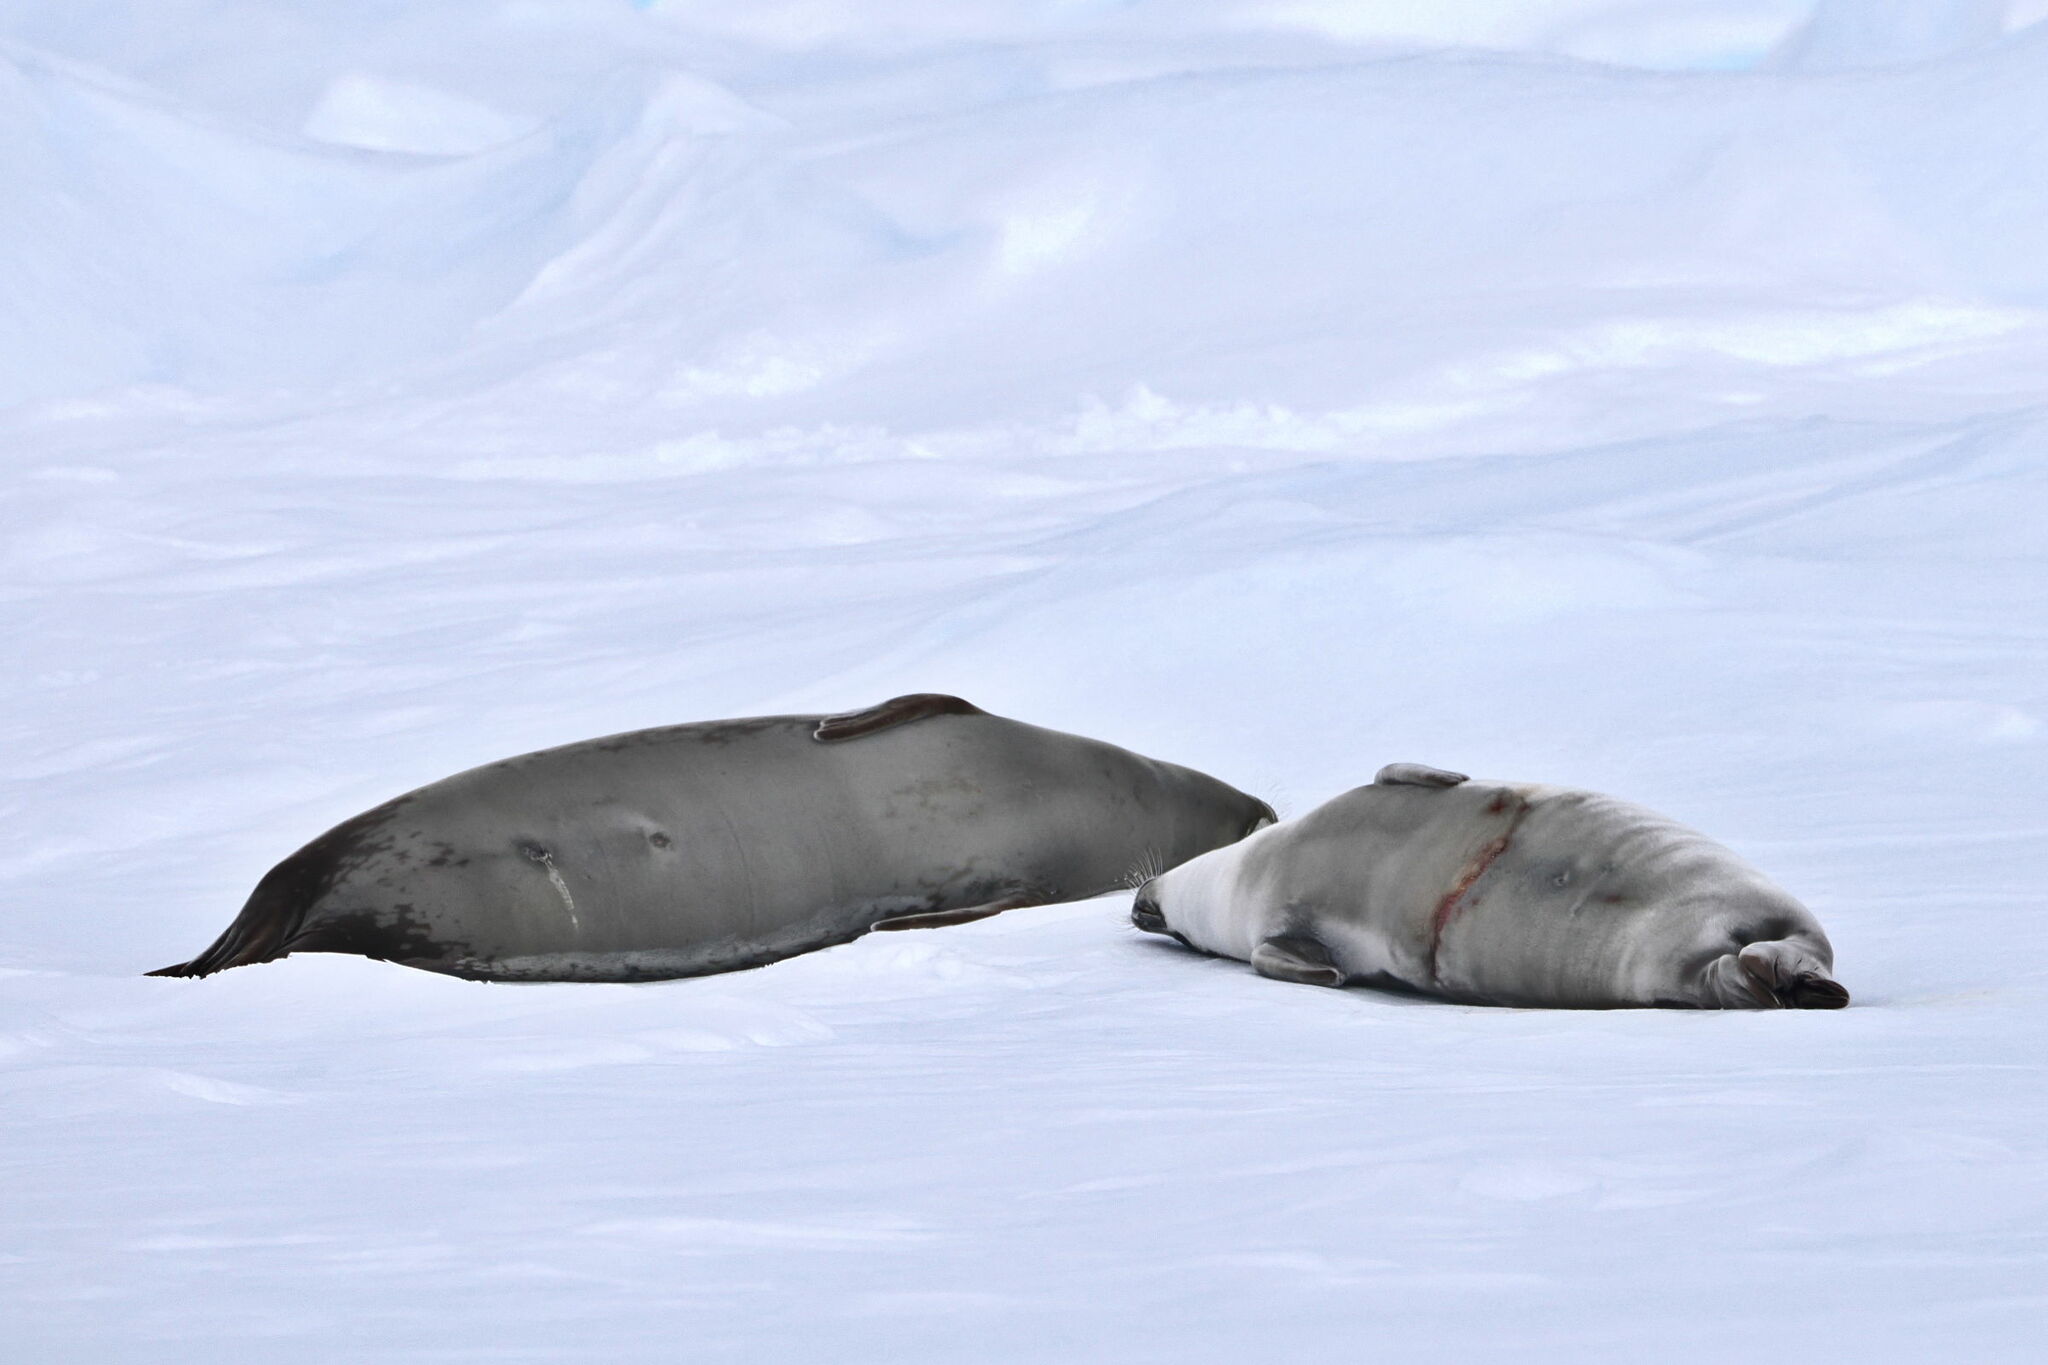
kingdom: Animalia
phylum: Chordata
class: Mammalia
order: Carnivora
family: Phocidae
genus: Lobodon
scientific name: Lobodon carcinophaga
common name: Crabeater seal
